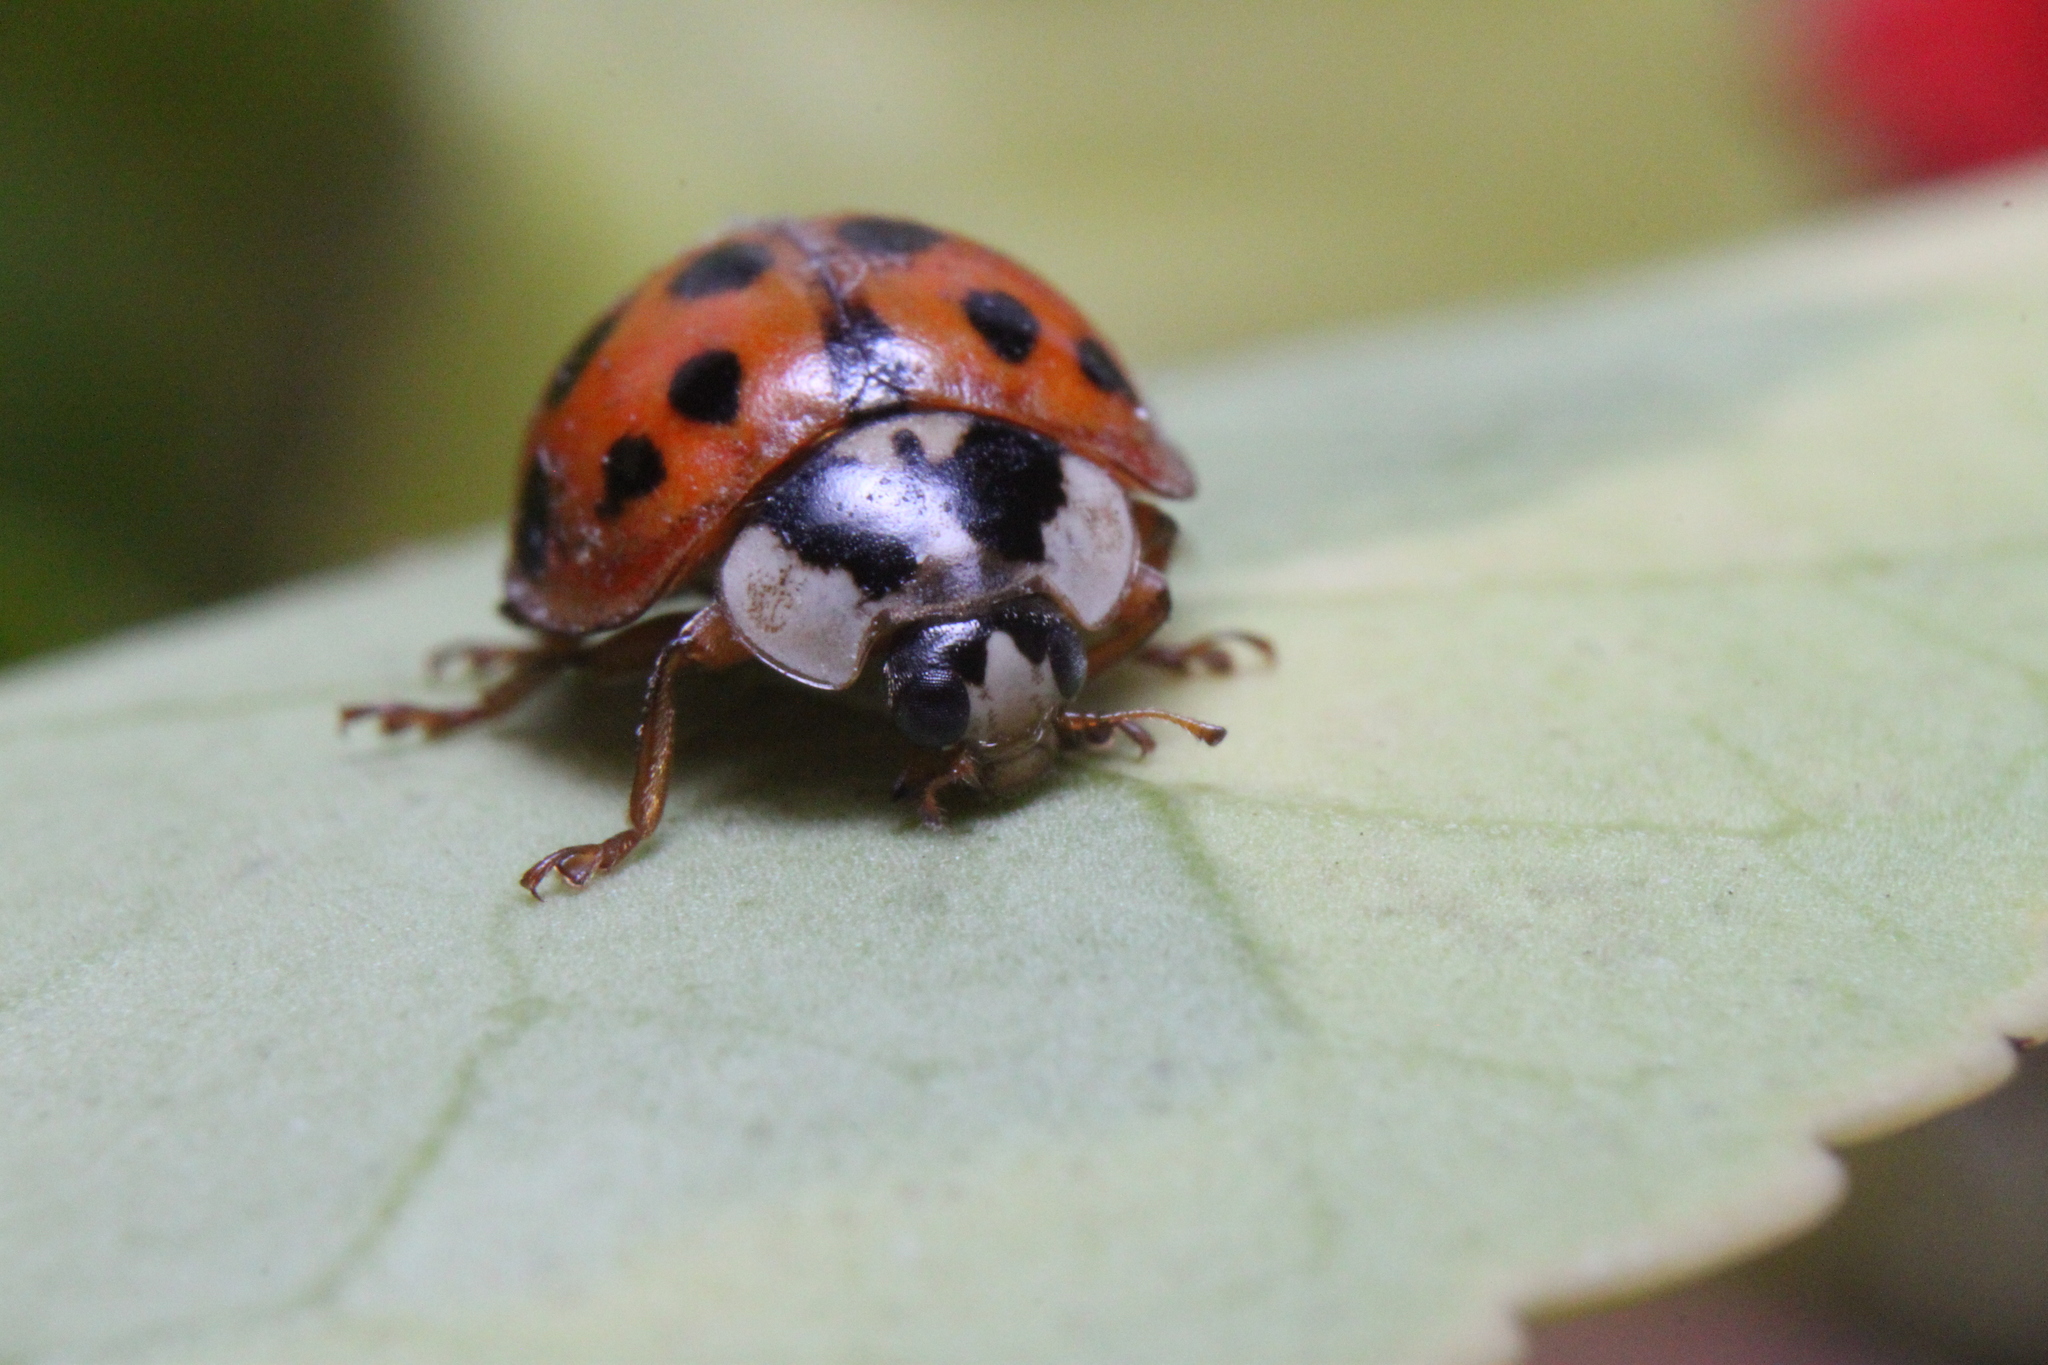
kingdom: Animalia
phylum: Arthropoda
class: Insecta
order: Coleoptera
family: Coccinellidae
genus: Harmonia
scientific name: Harmonia axyridis
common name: Harlequin ladybird
